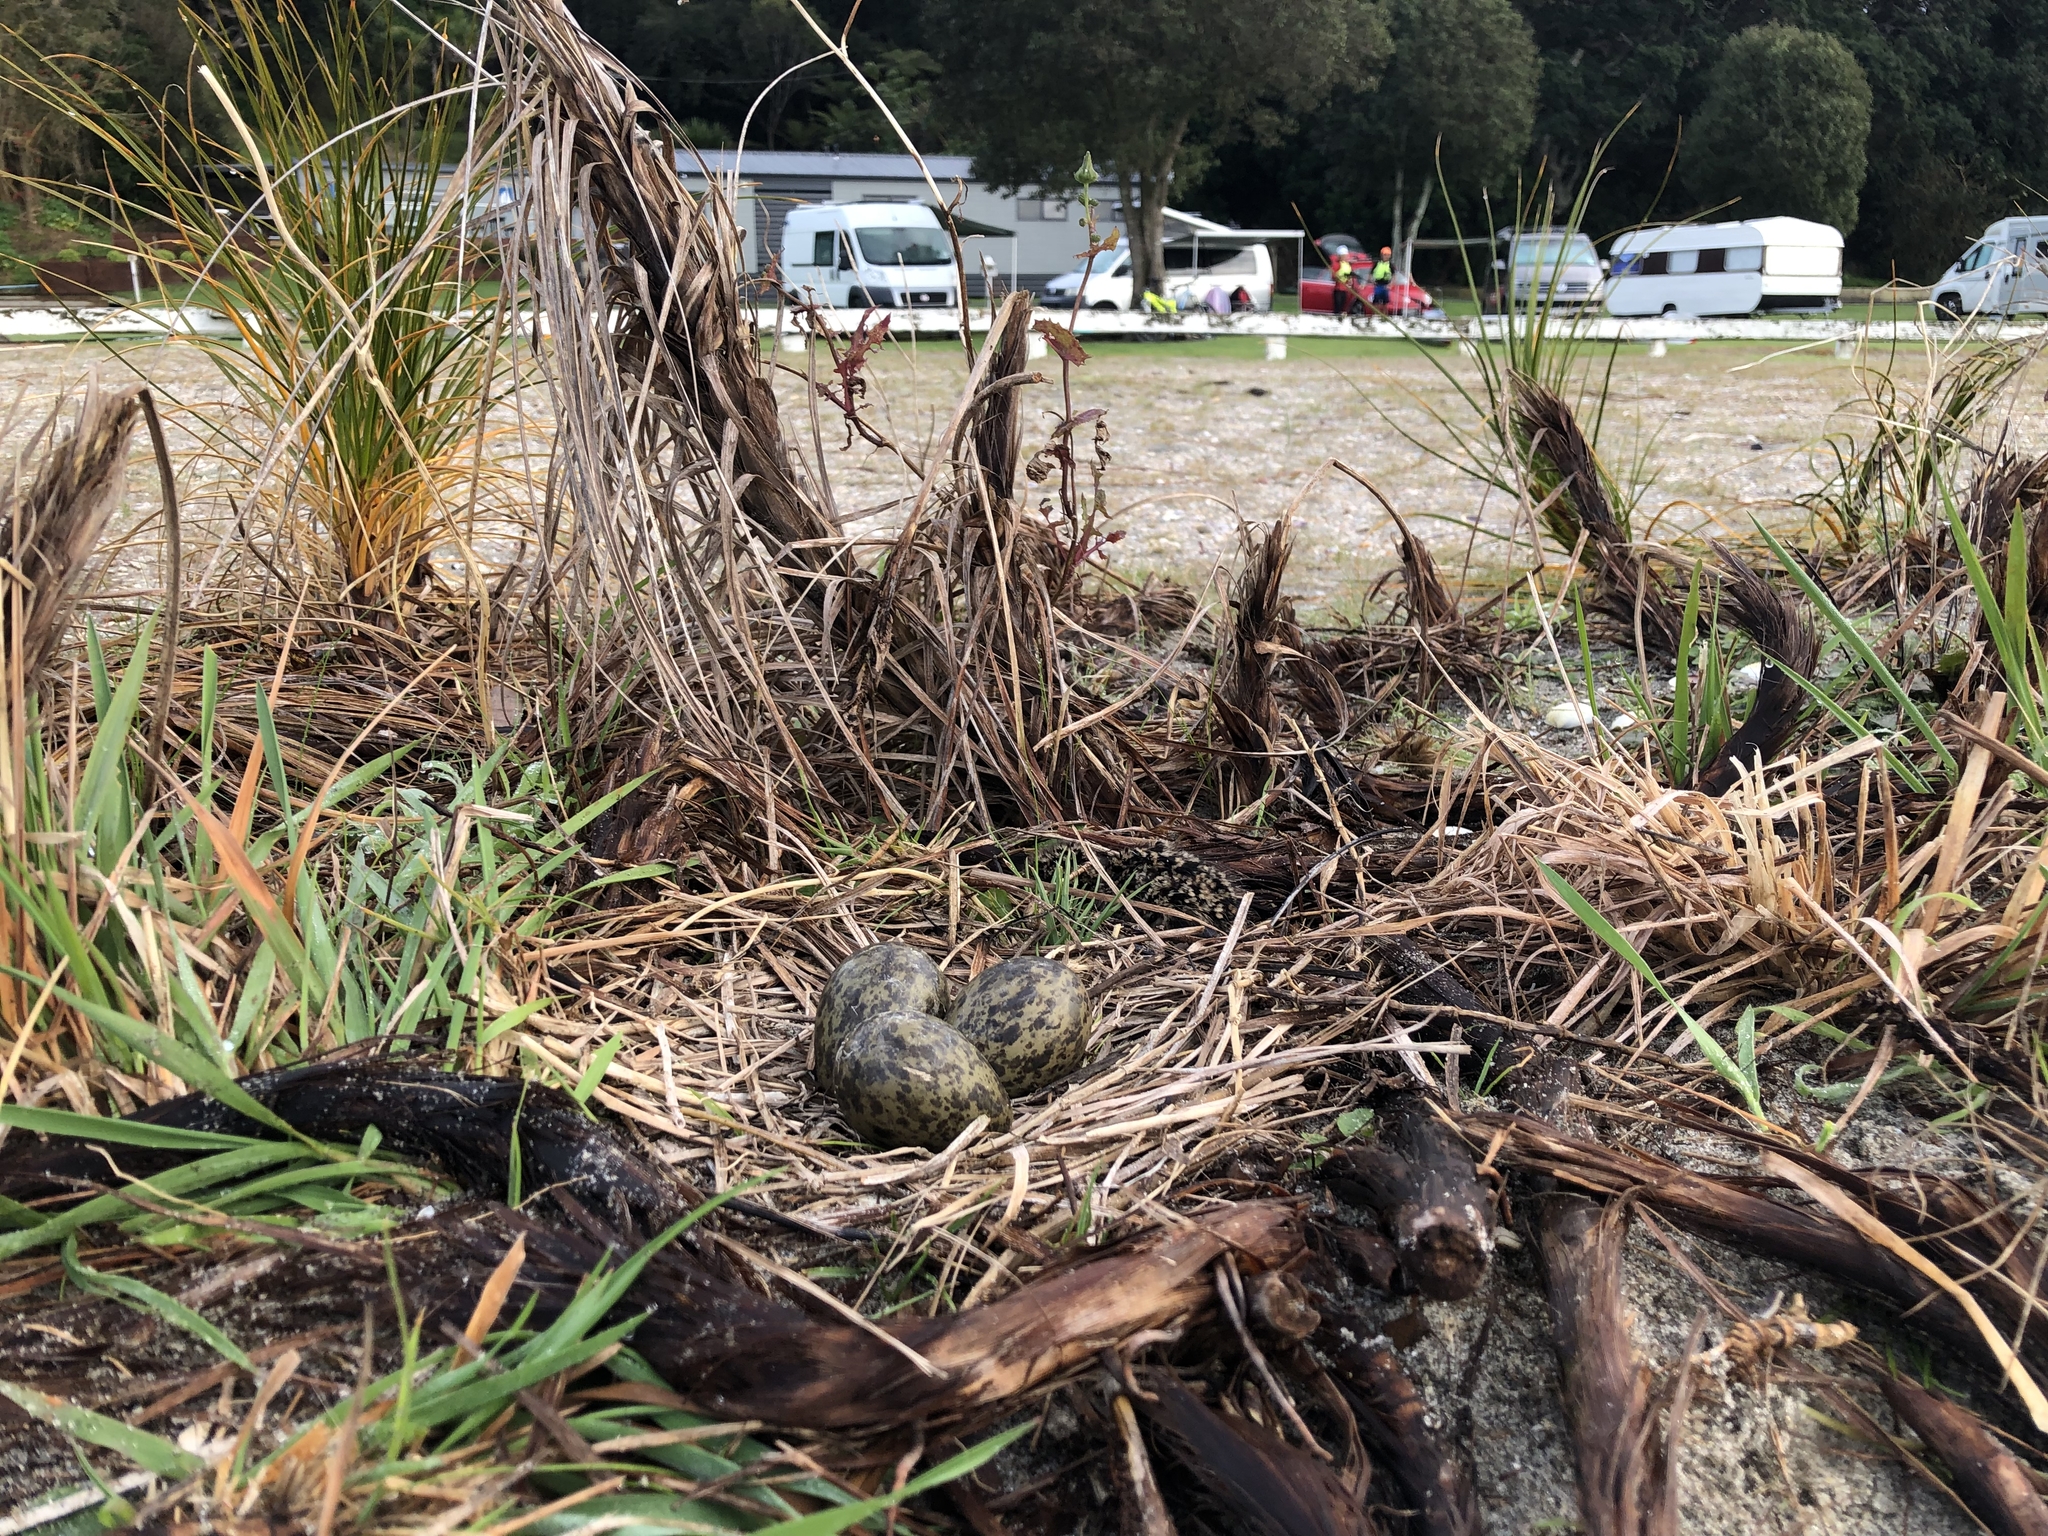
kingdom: Animalia
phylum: Chordata
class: Aves
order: Charadriiformes
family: Charadriidae
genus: Vanellus
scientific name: Vanellus miles
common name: Masked lapwing
